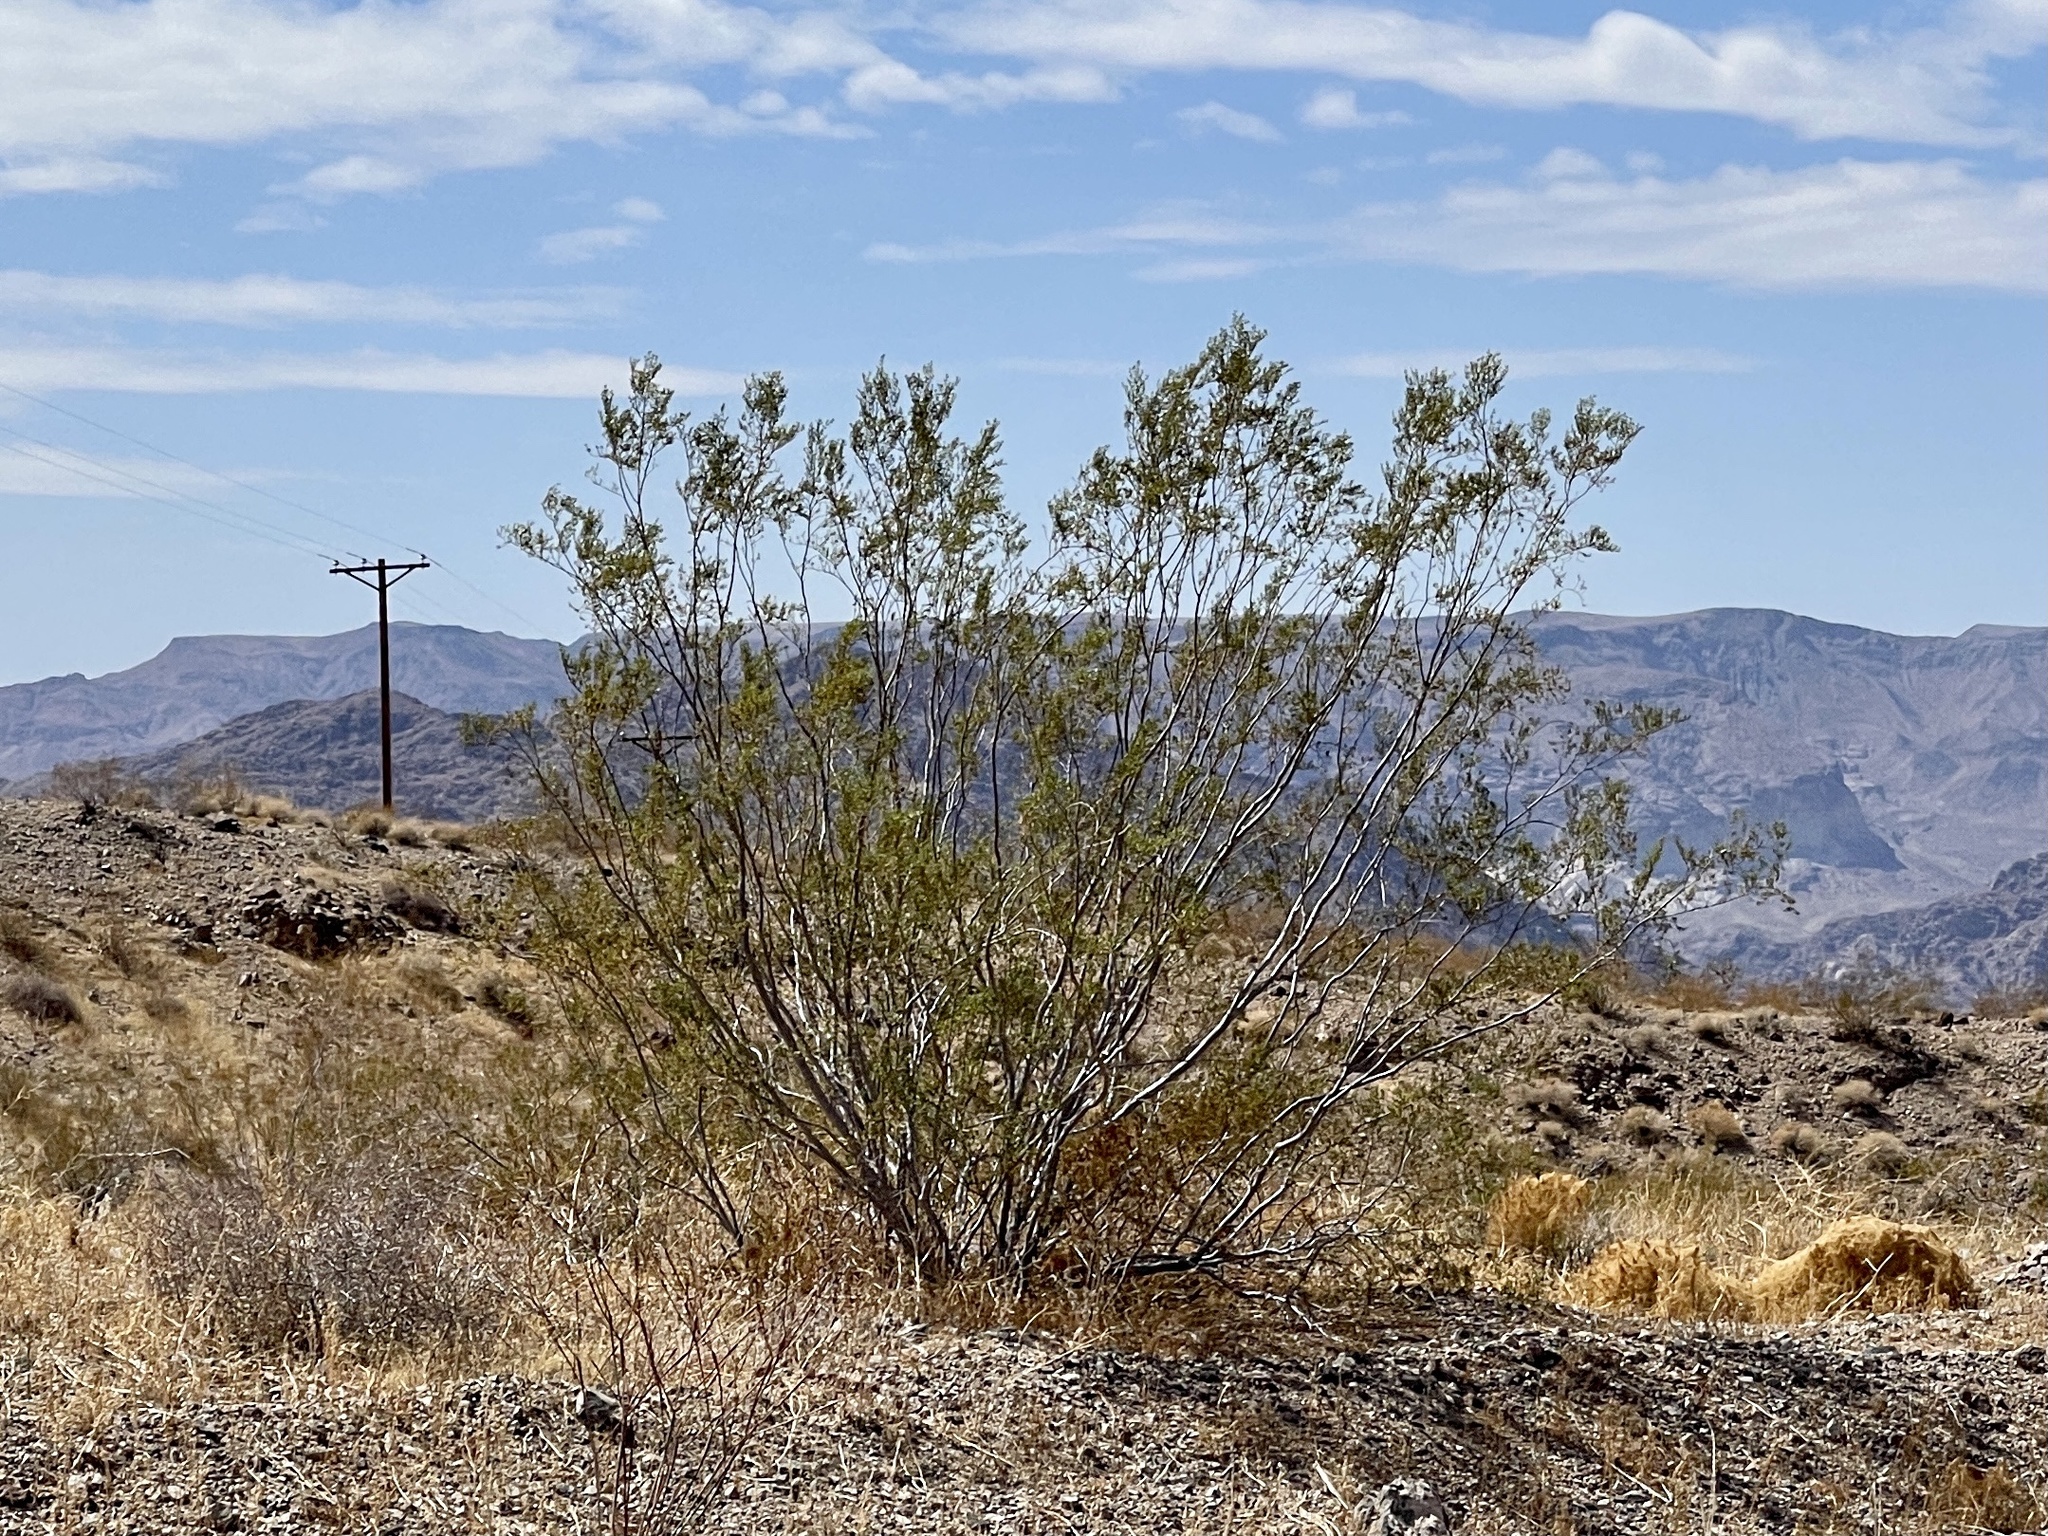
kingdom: Plantae
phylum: Tracheophyta
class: Magnoliopsida
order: Zygophyllales
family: Zygophyllaceae
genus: Larrea
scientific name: Larrea tridentata
